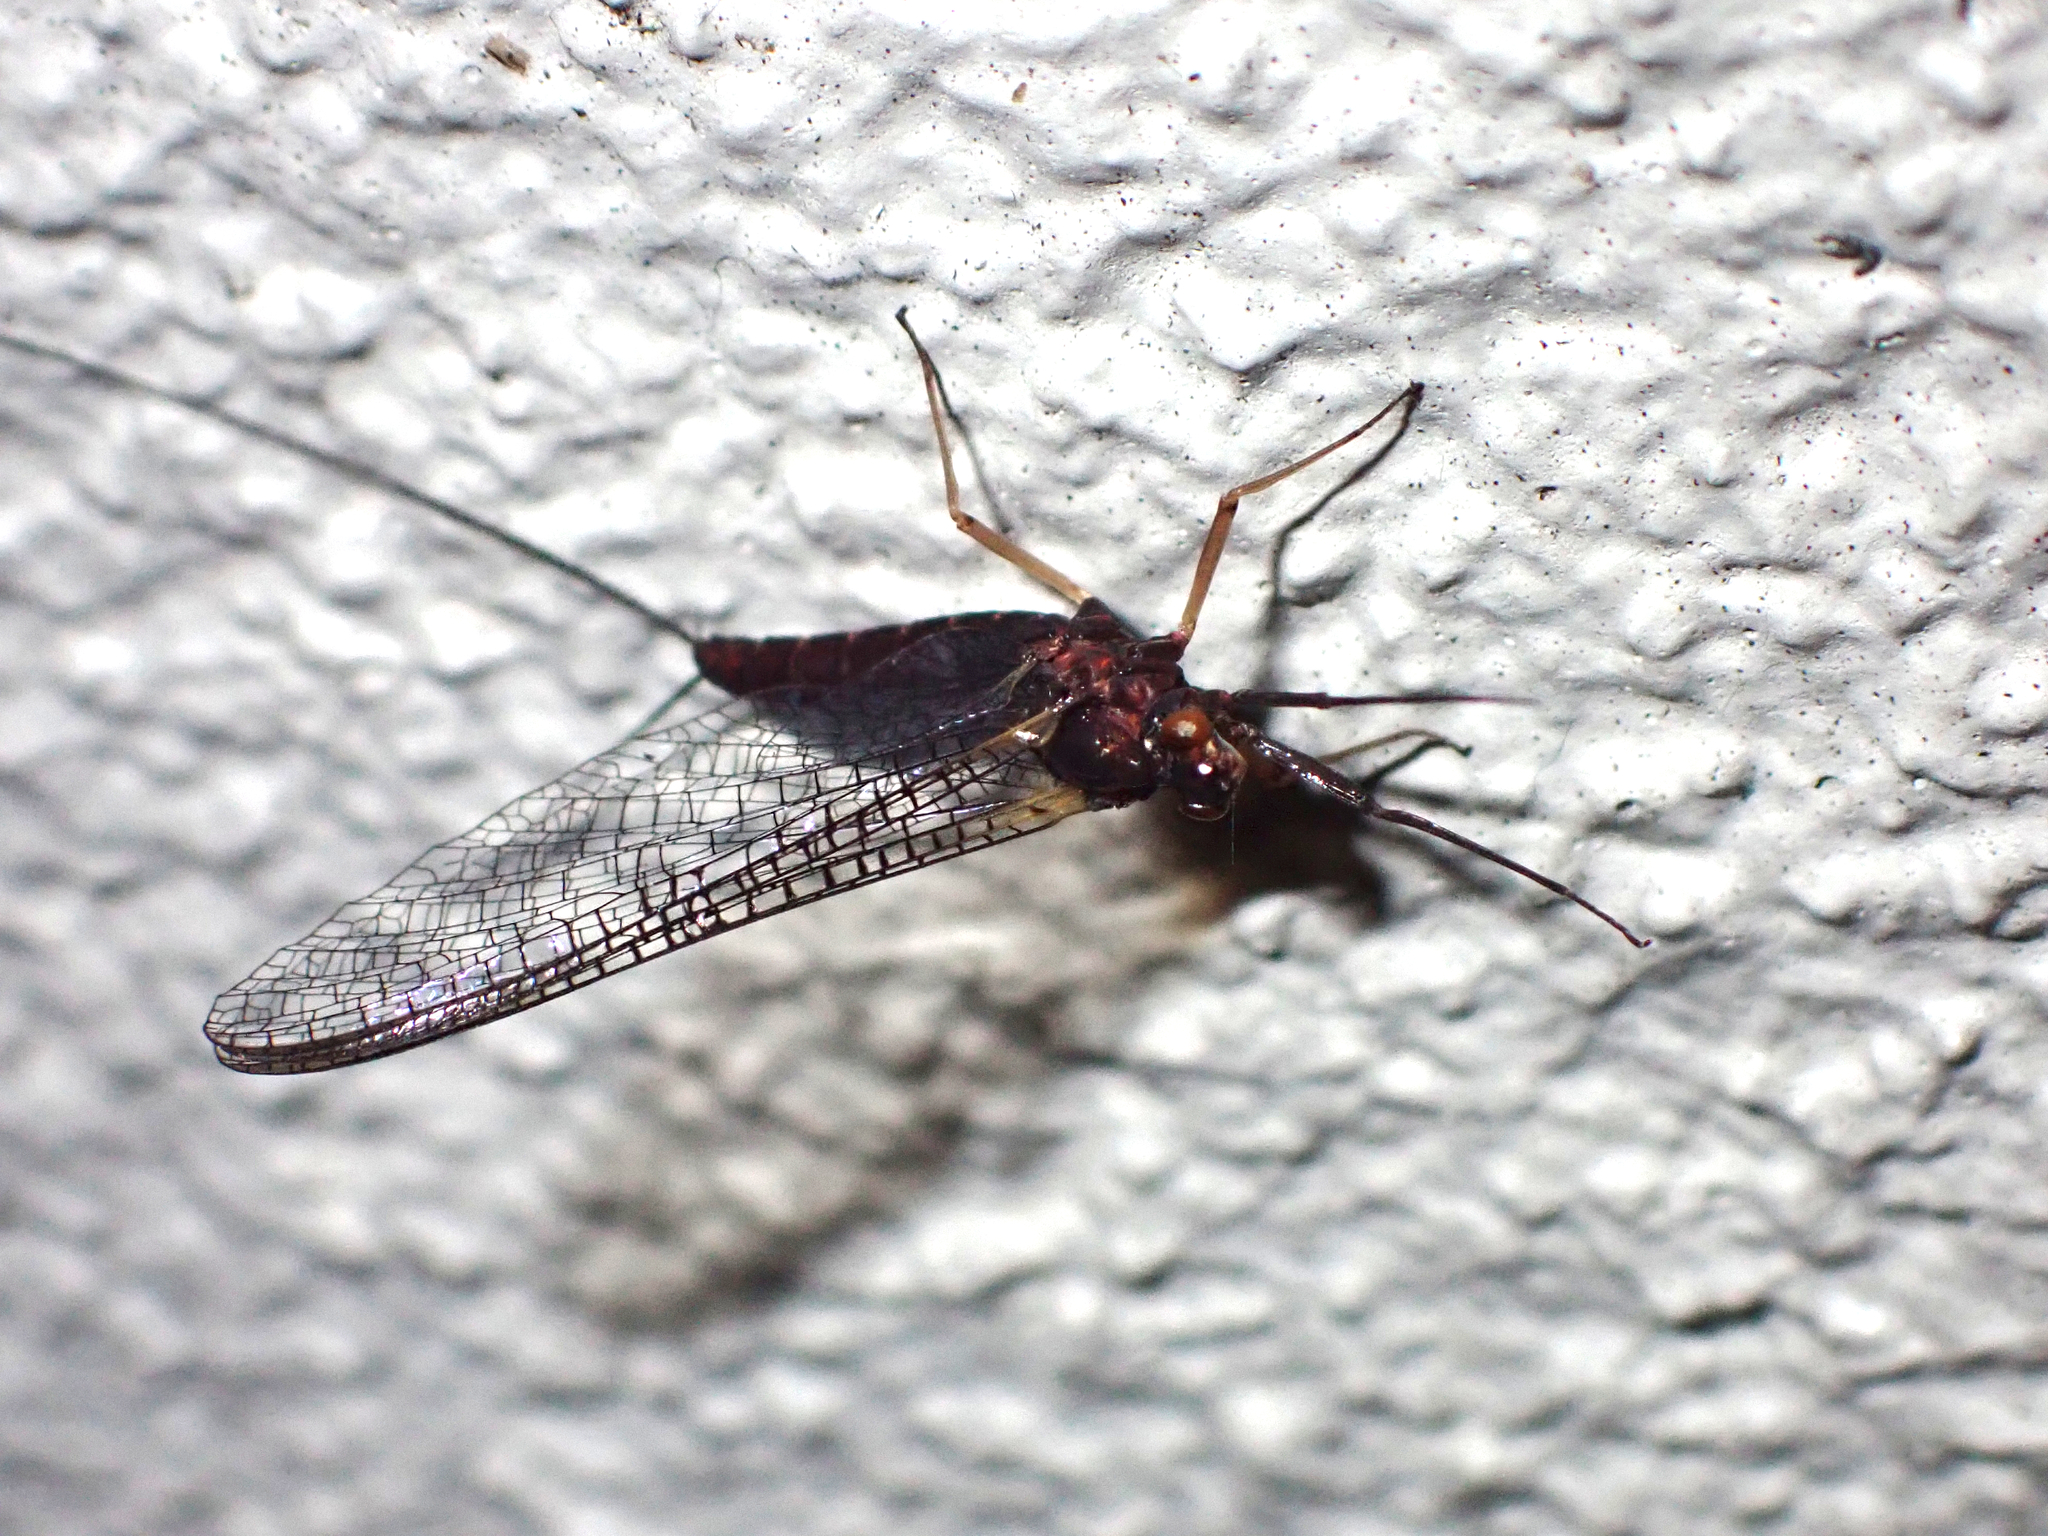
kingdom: Animalia
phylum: Arthropoda
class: Insecta
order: Ephemeroptera
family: Coloburiscidae
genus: Coloburiscus
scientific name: Coloburiscus humeralis
